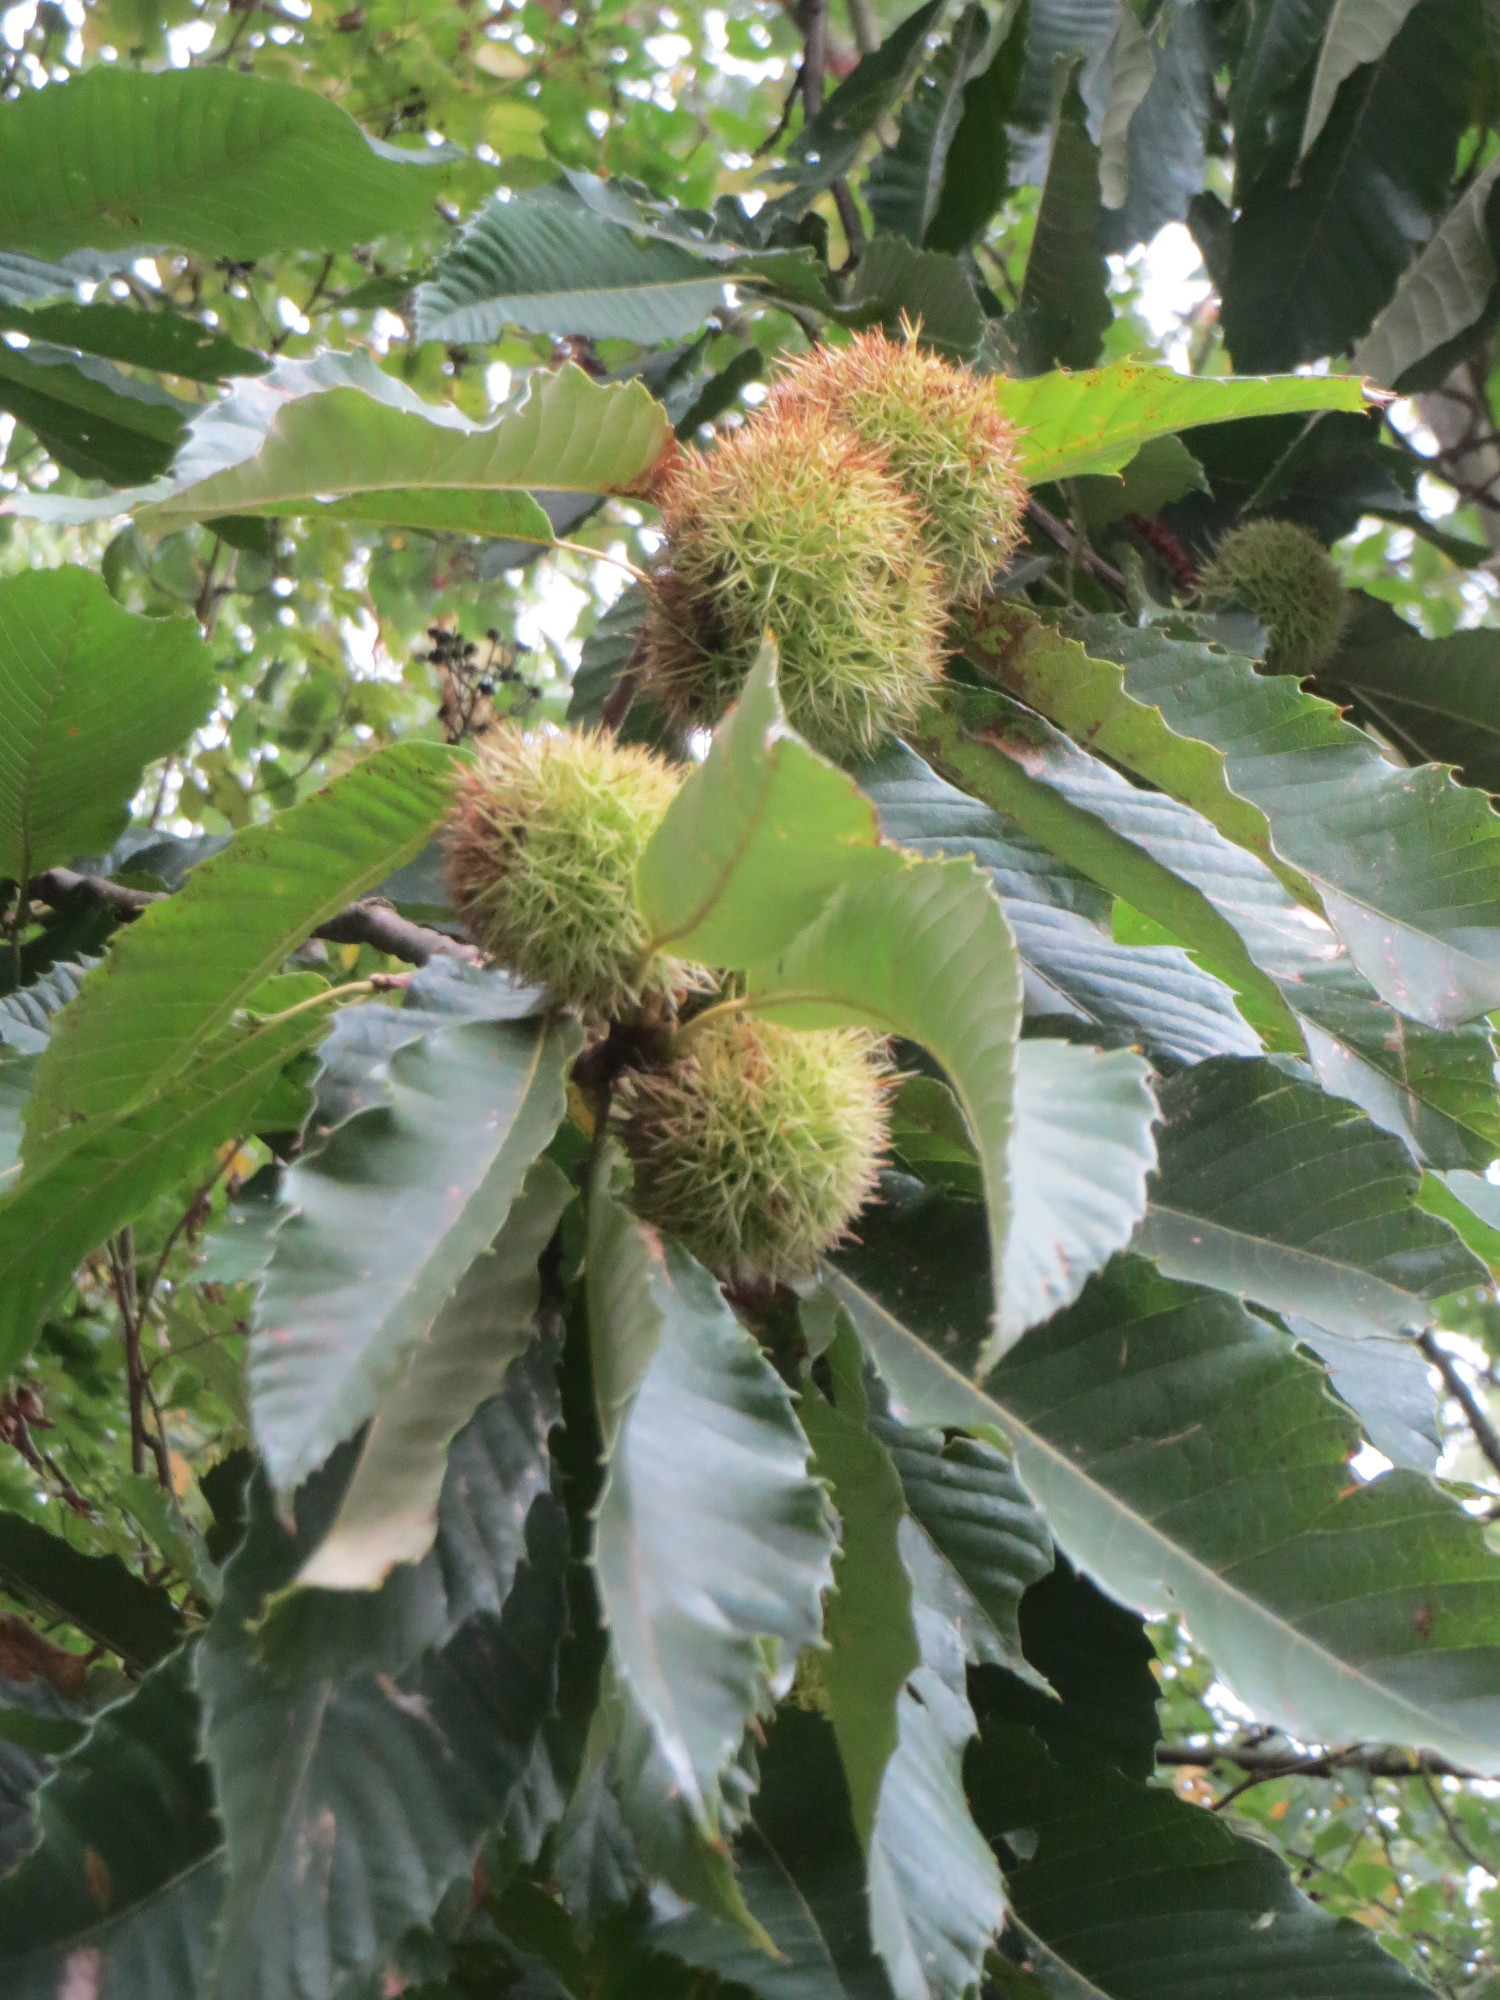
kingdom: Plantae
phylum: Tracheophyta
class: Magnoliopsida
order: Fagales
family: Fagaceae
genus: Castanea
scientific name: Castanea sativa
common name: Sweet chestnut
